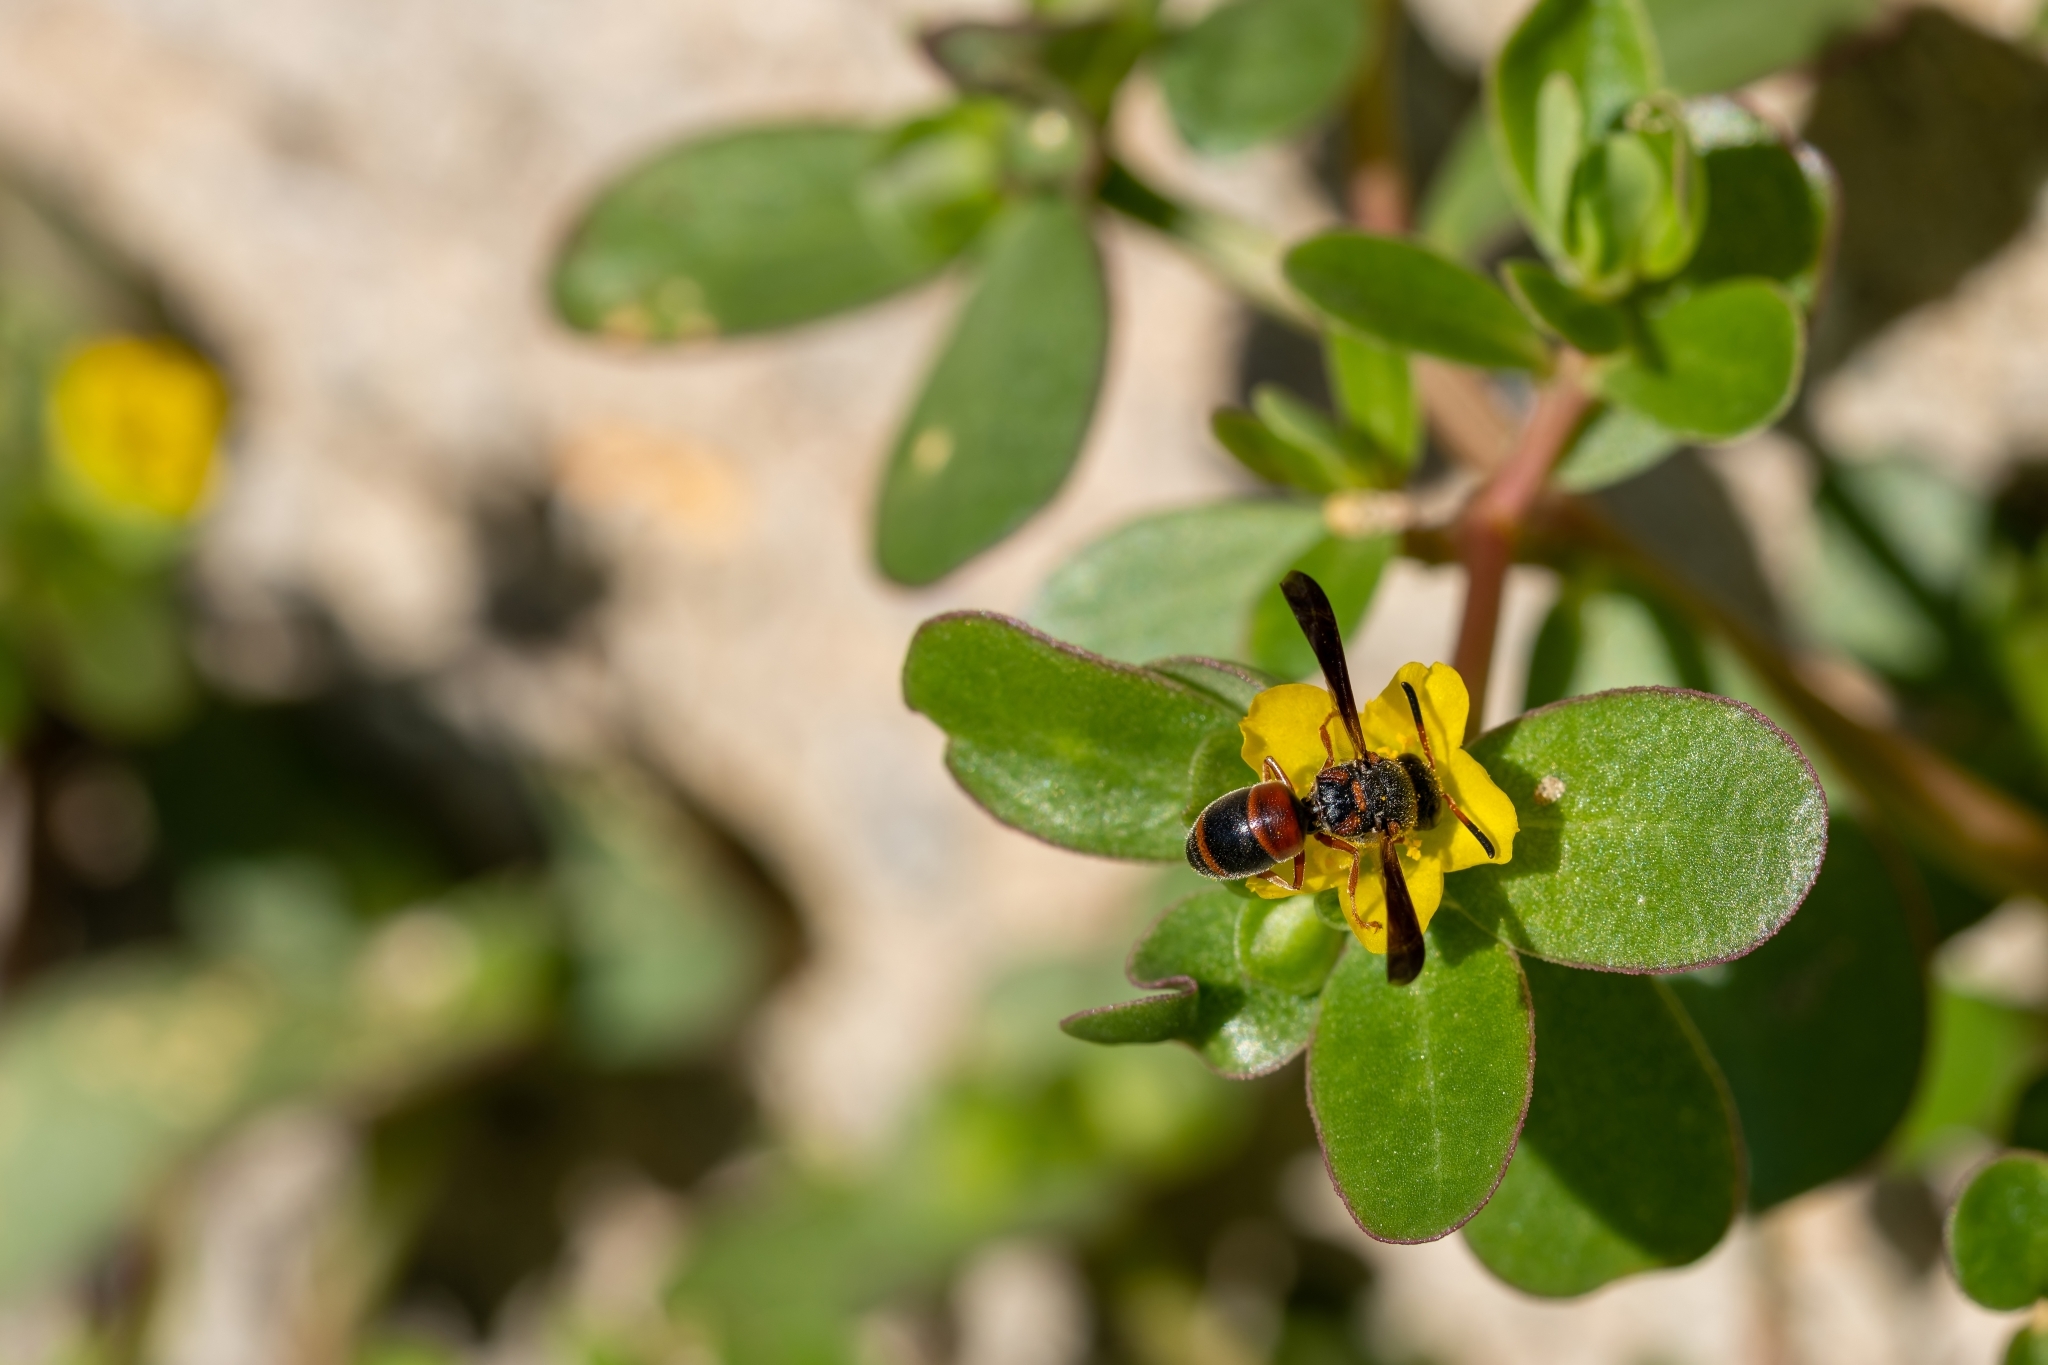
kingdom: Animalia
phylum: Arthropoda
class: Insecta
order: Hymenoptera
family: Eumenidae
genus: Pachodynerus
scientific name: Pachodynerus erynnis
